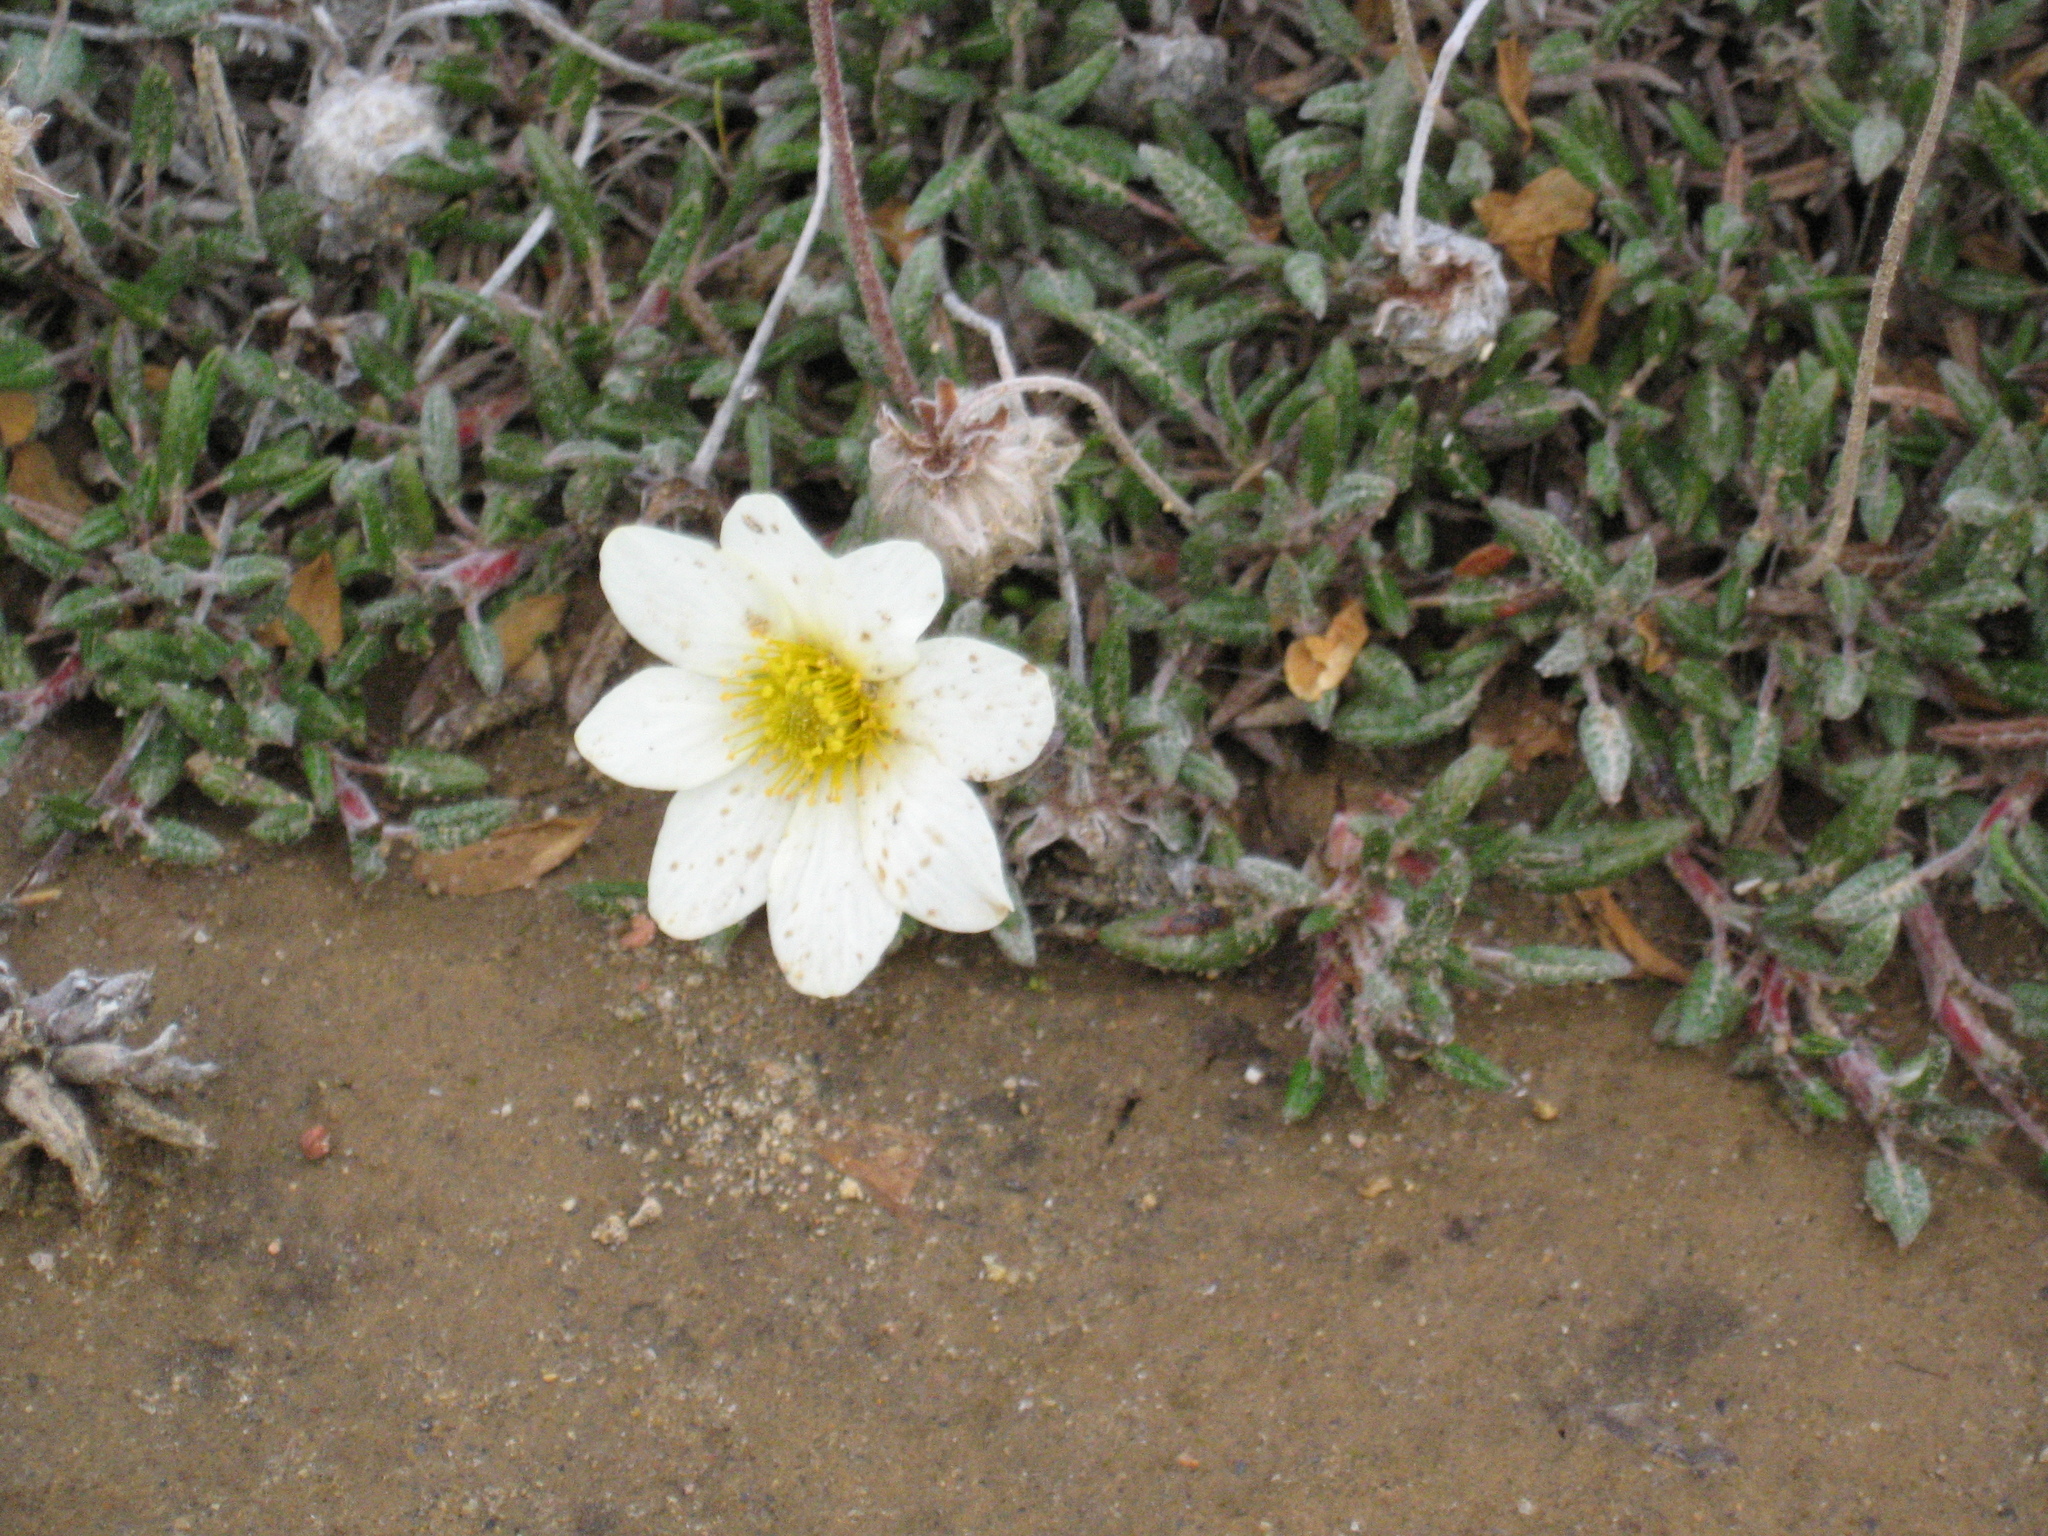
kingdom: Plantae
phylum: Tracheophyta
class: Magnoliopsida
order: Rosales
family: Rosaceae
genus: Dryas
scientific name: Dryas integrifolia
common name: Entire-leaved mountain avens
